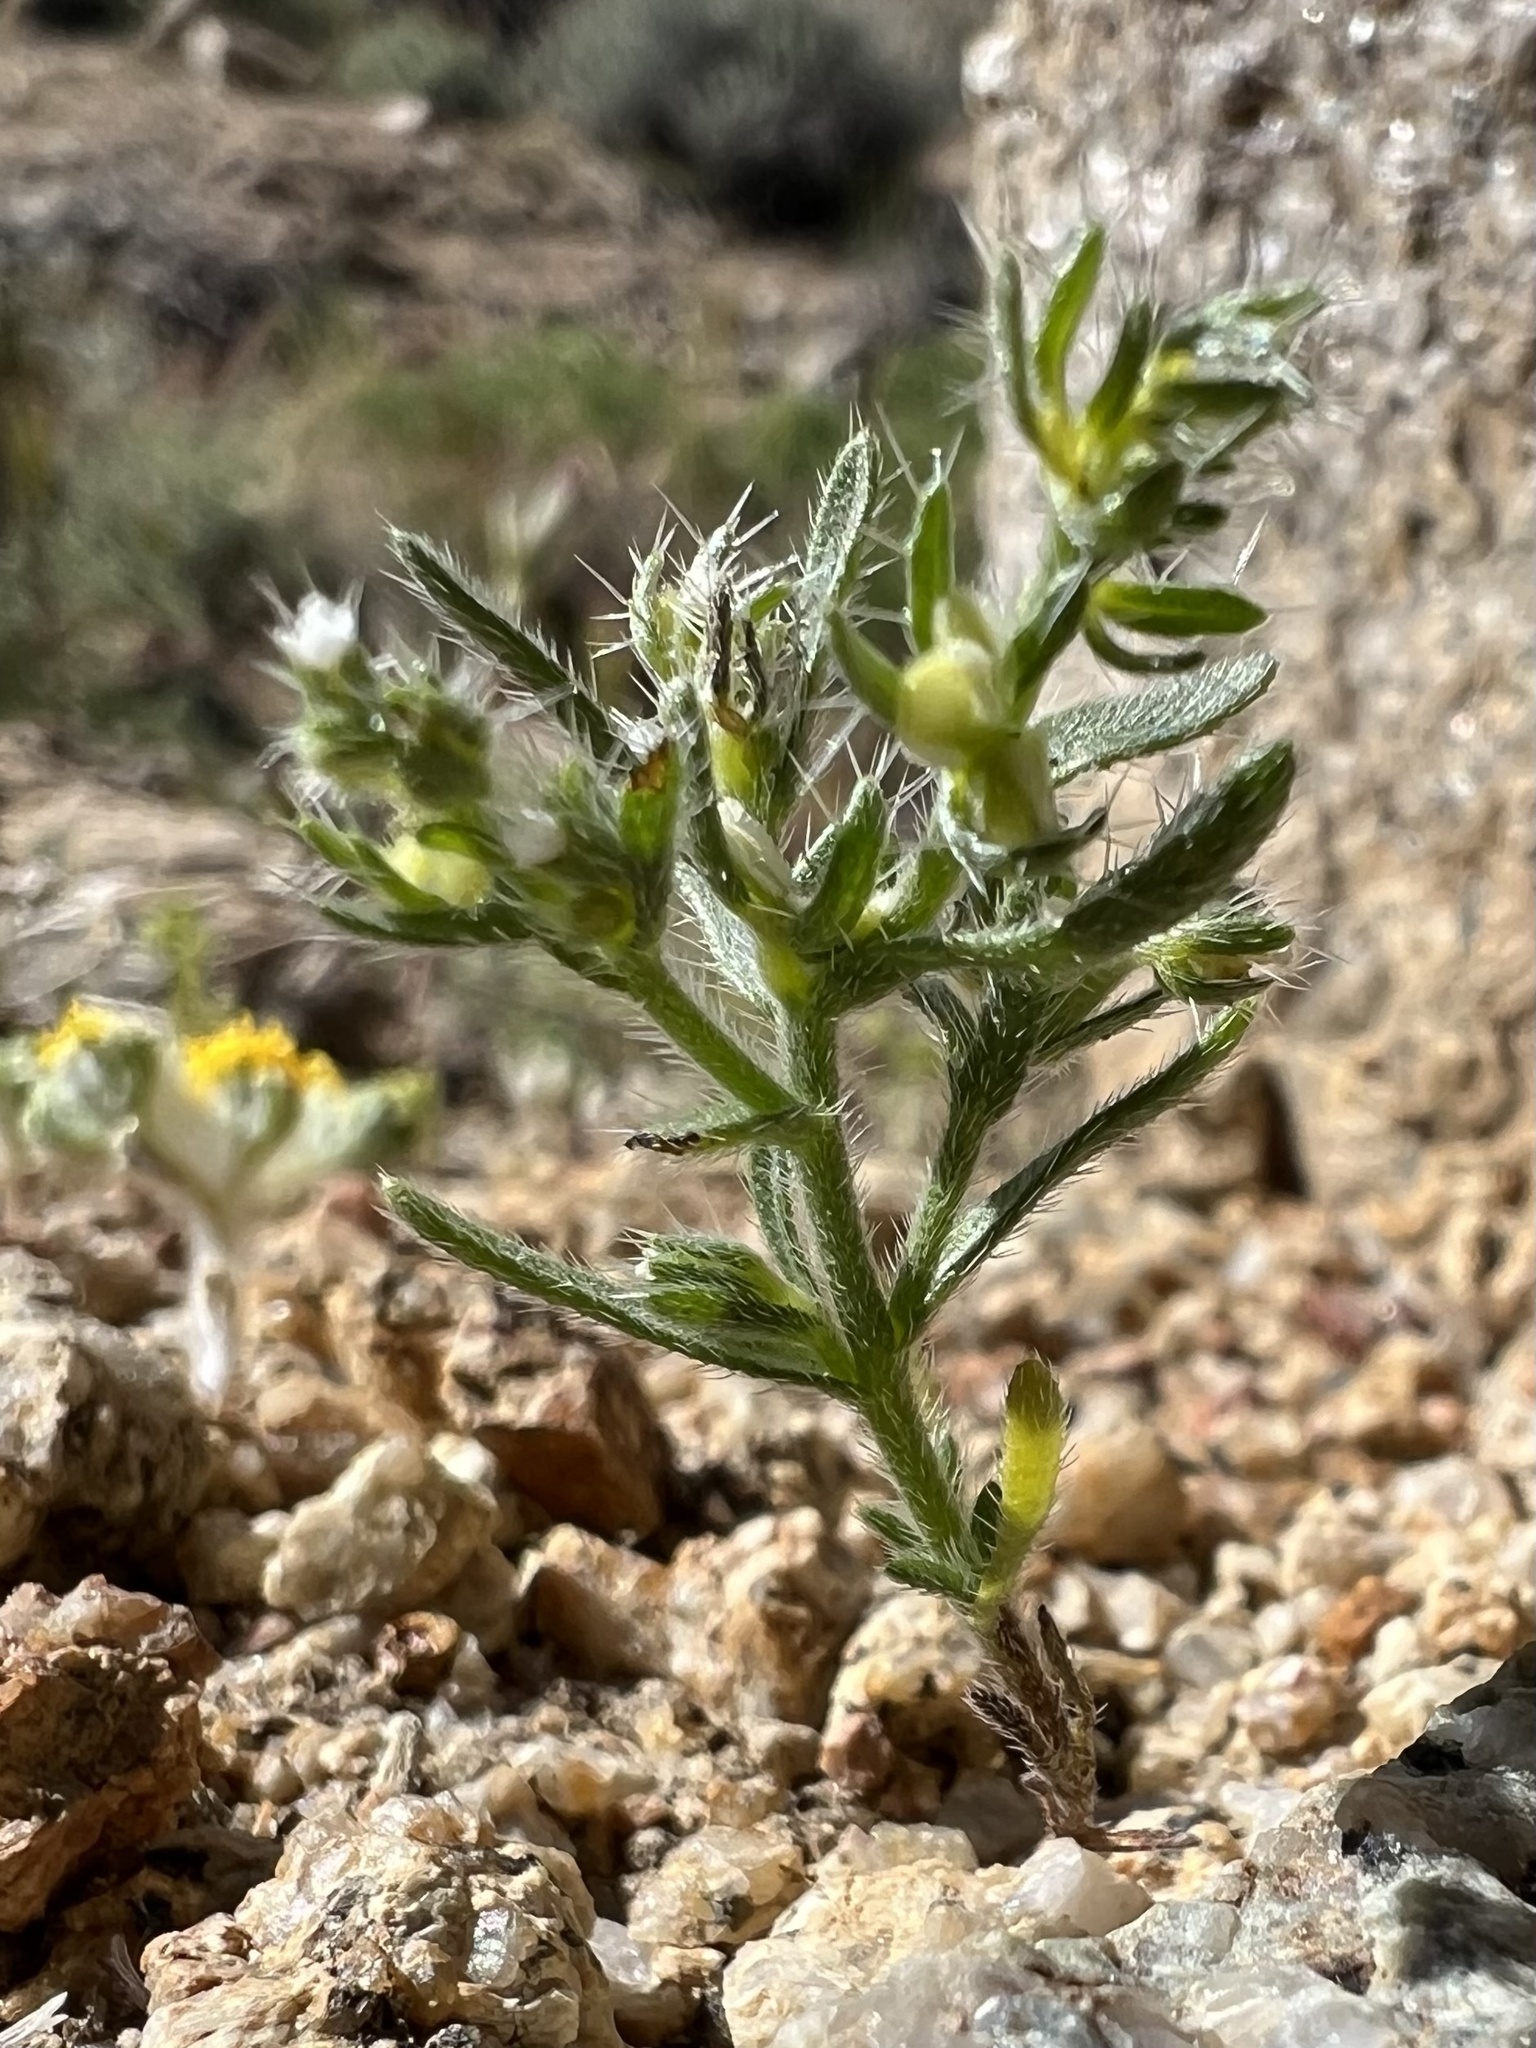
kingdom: Plantae
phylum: Tracheophyta
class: Magnoliopsida
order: Boraginales
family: Boraginaceae
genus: Pectocarya
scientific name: Pectocarya setosa
